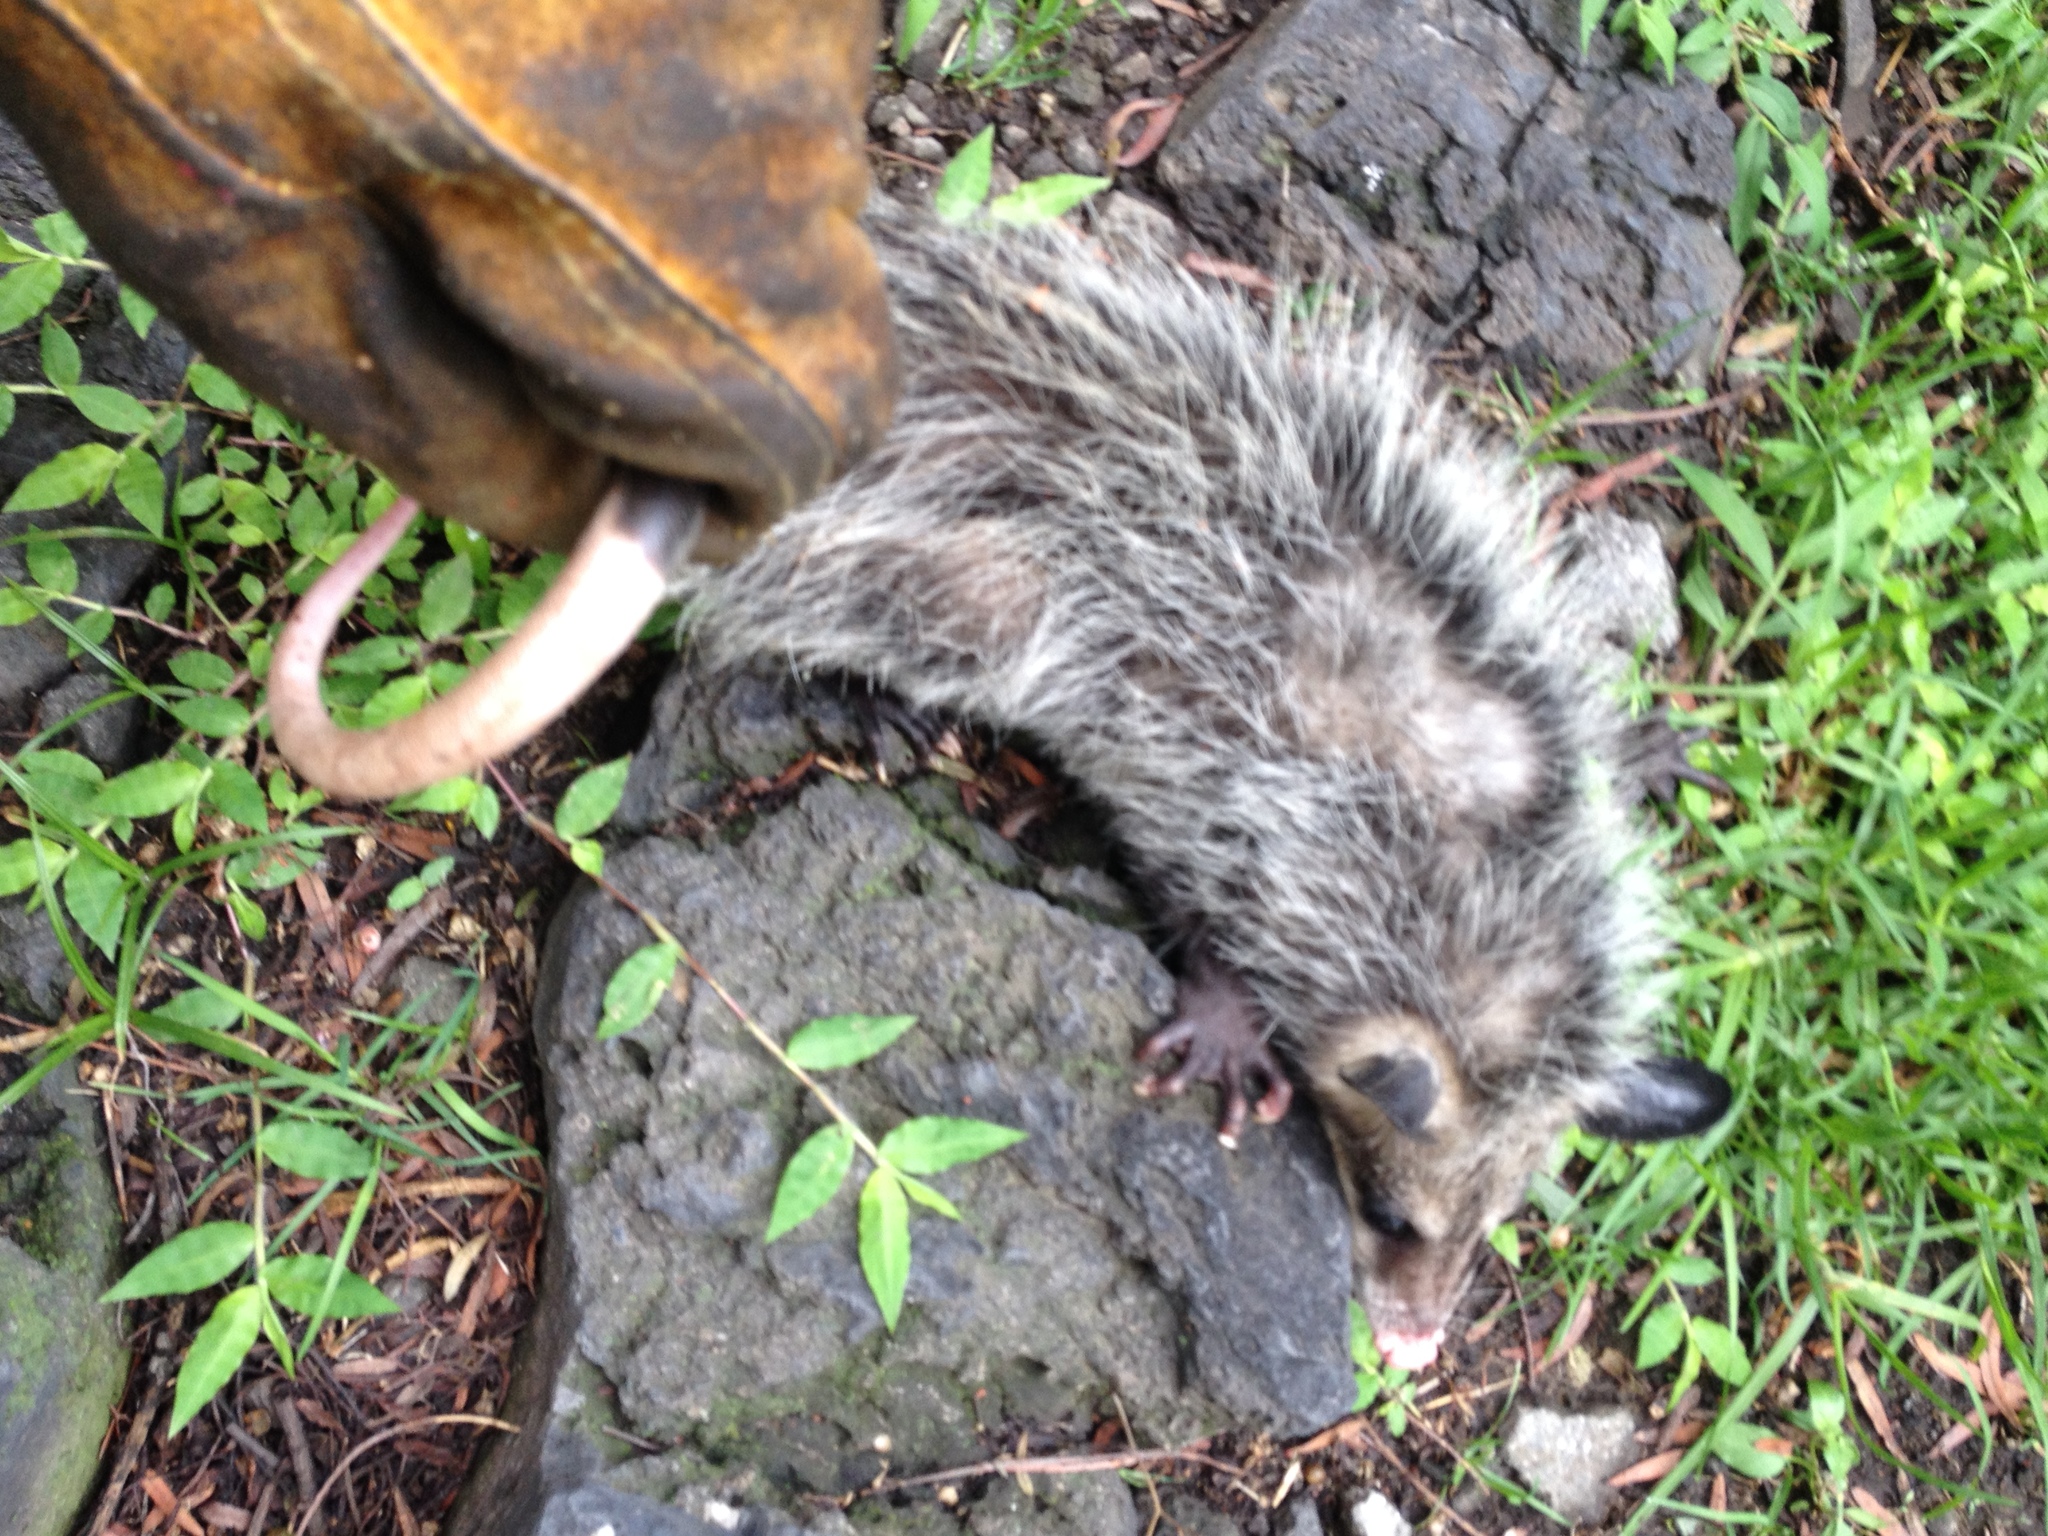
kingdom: Animalia
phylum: Chordata
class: Mammalia
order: Didelphimorphia
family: Didelphidae
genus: Didelphis
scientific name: Didelphis virginiana
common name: Virginia opossum
